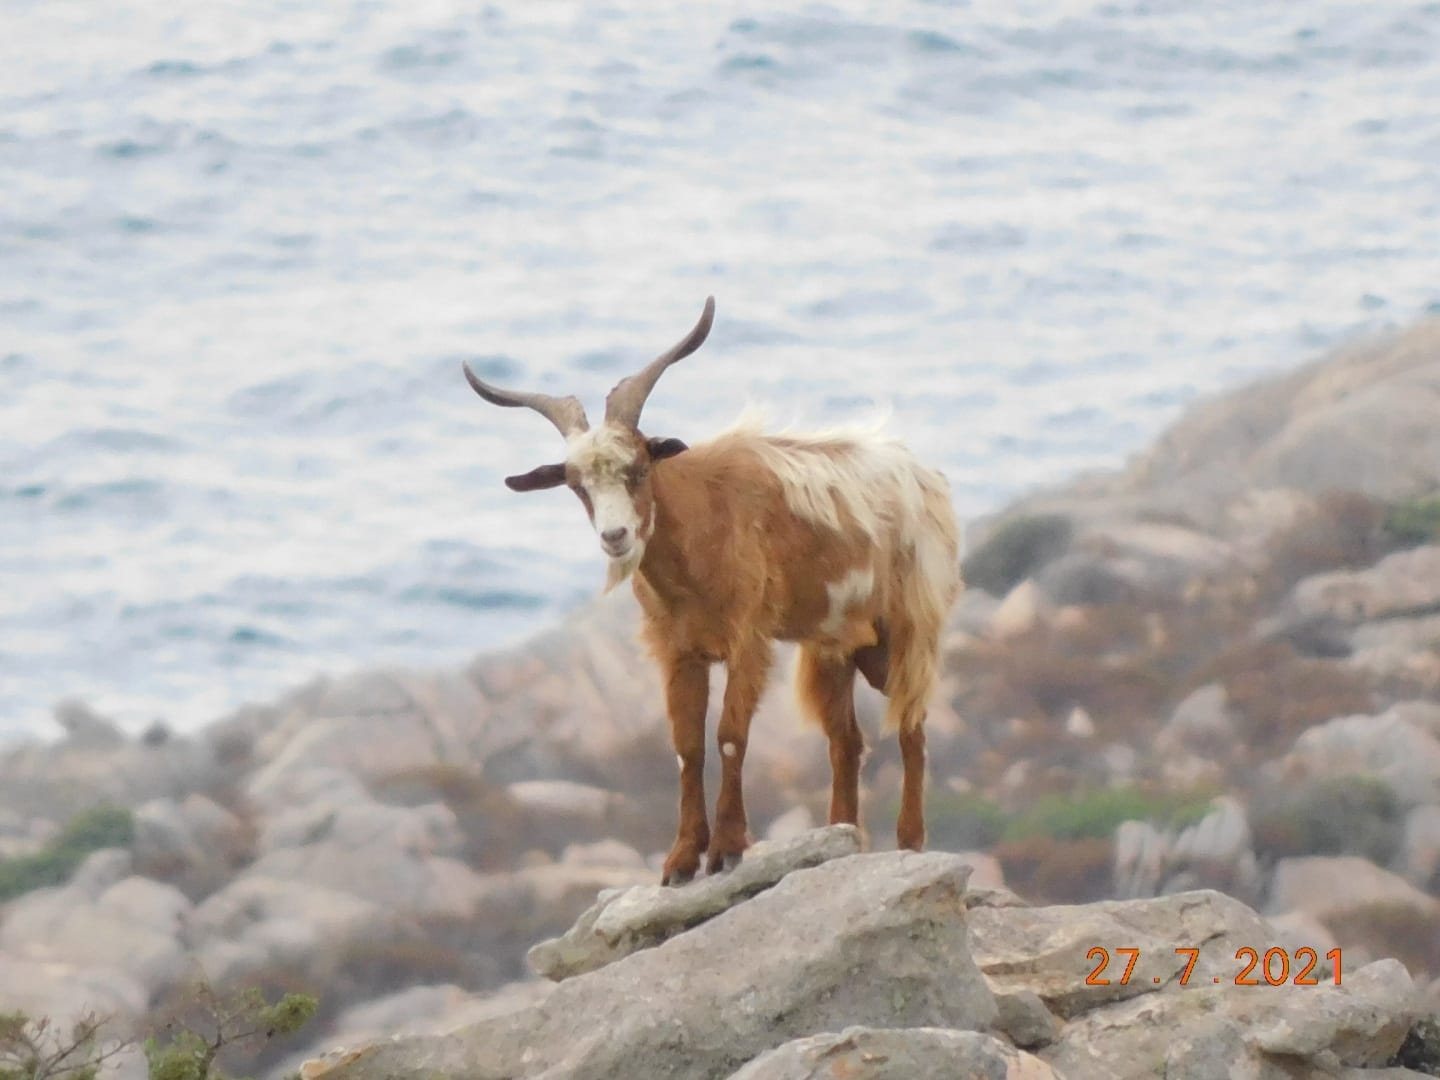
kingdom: Animalia
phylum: Chordata
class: Mammalia
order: Artiodactyla
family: Bovidae
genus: Capra
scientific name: Capra hircus
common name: Domestic goat
